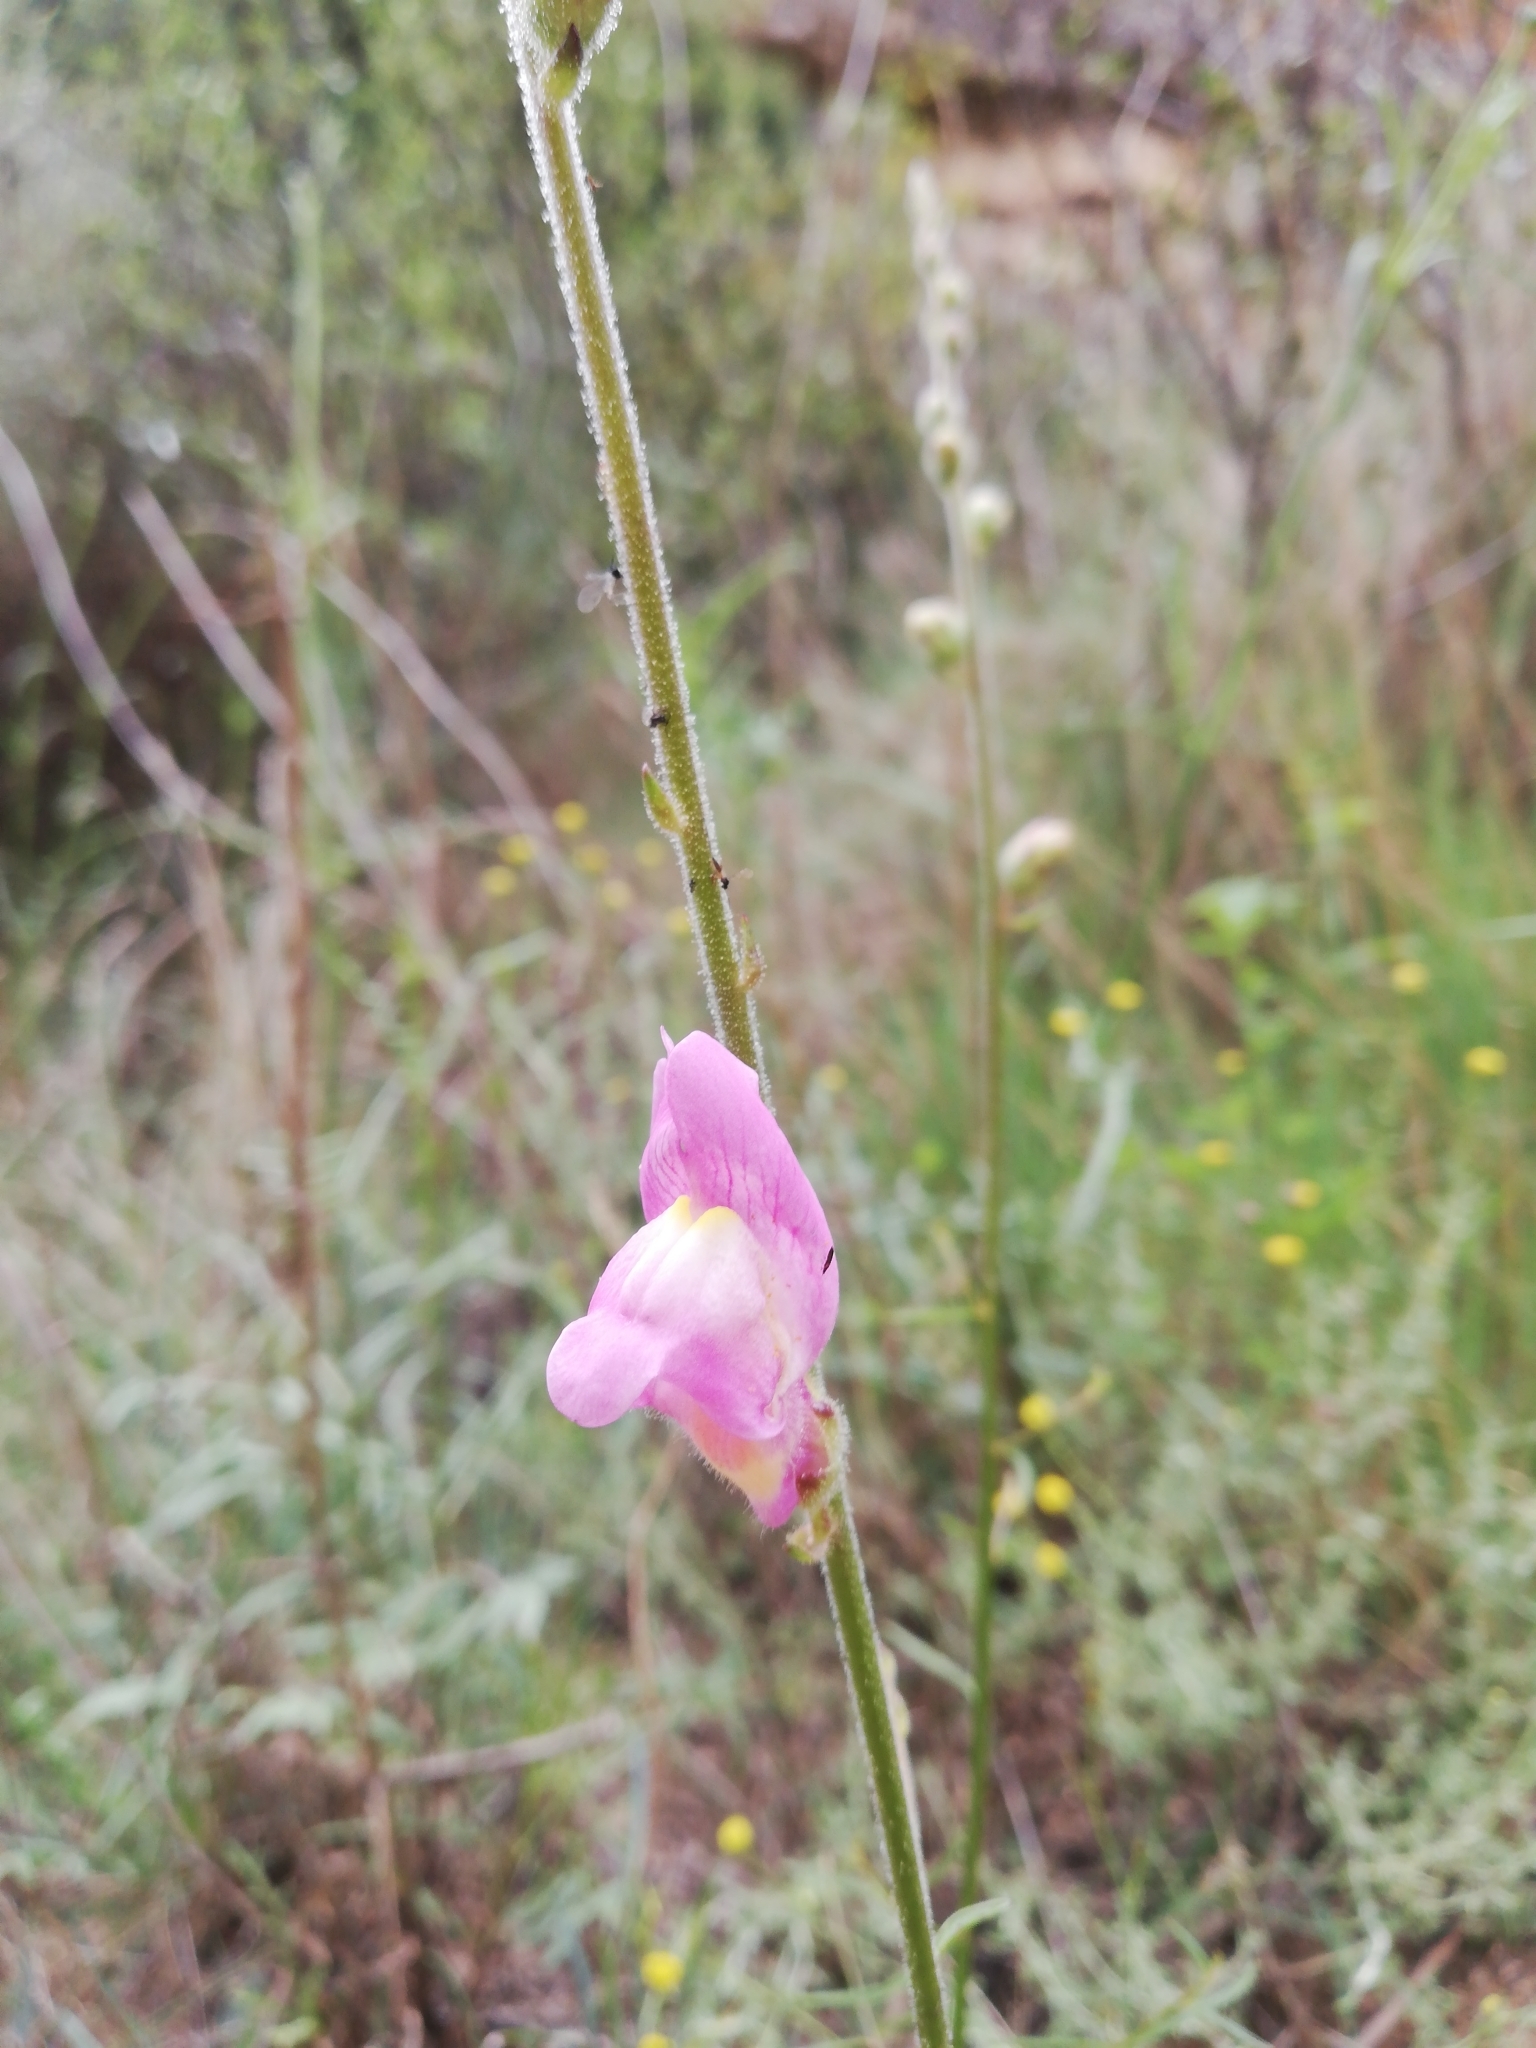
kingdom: Plantae
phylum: Tracheophyta
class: Magnoliopsida
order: Lamiales
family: Plantaginaceae
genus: Antirrhinum
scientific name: Antirrhinum litigiosum
